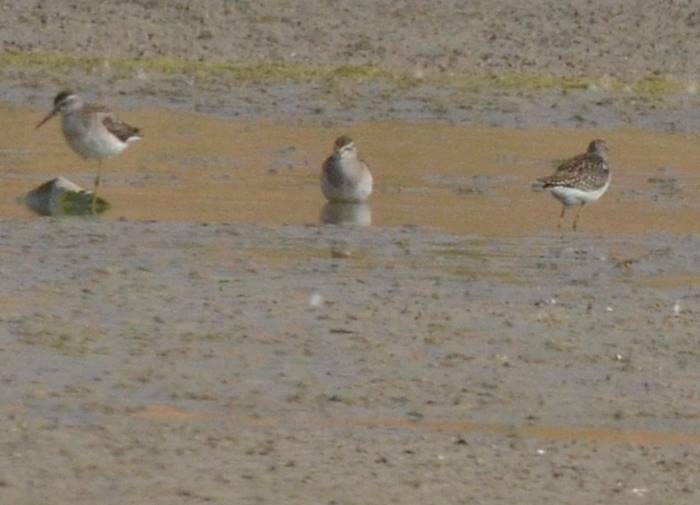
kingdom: Animalia
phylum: Chordata
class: Aves
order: Charadriiformes
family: Scolopacidae
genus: Tringa
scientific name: Tringa glareola
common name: Wood sandpiper
